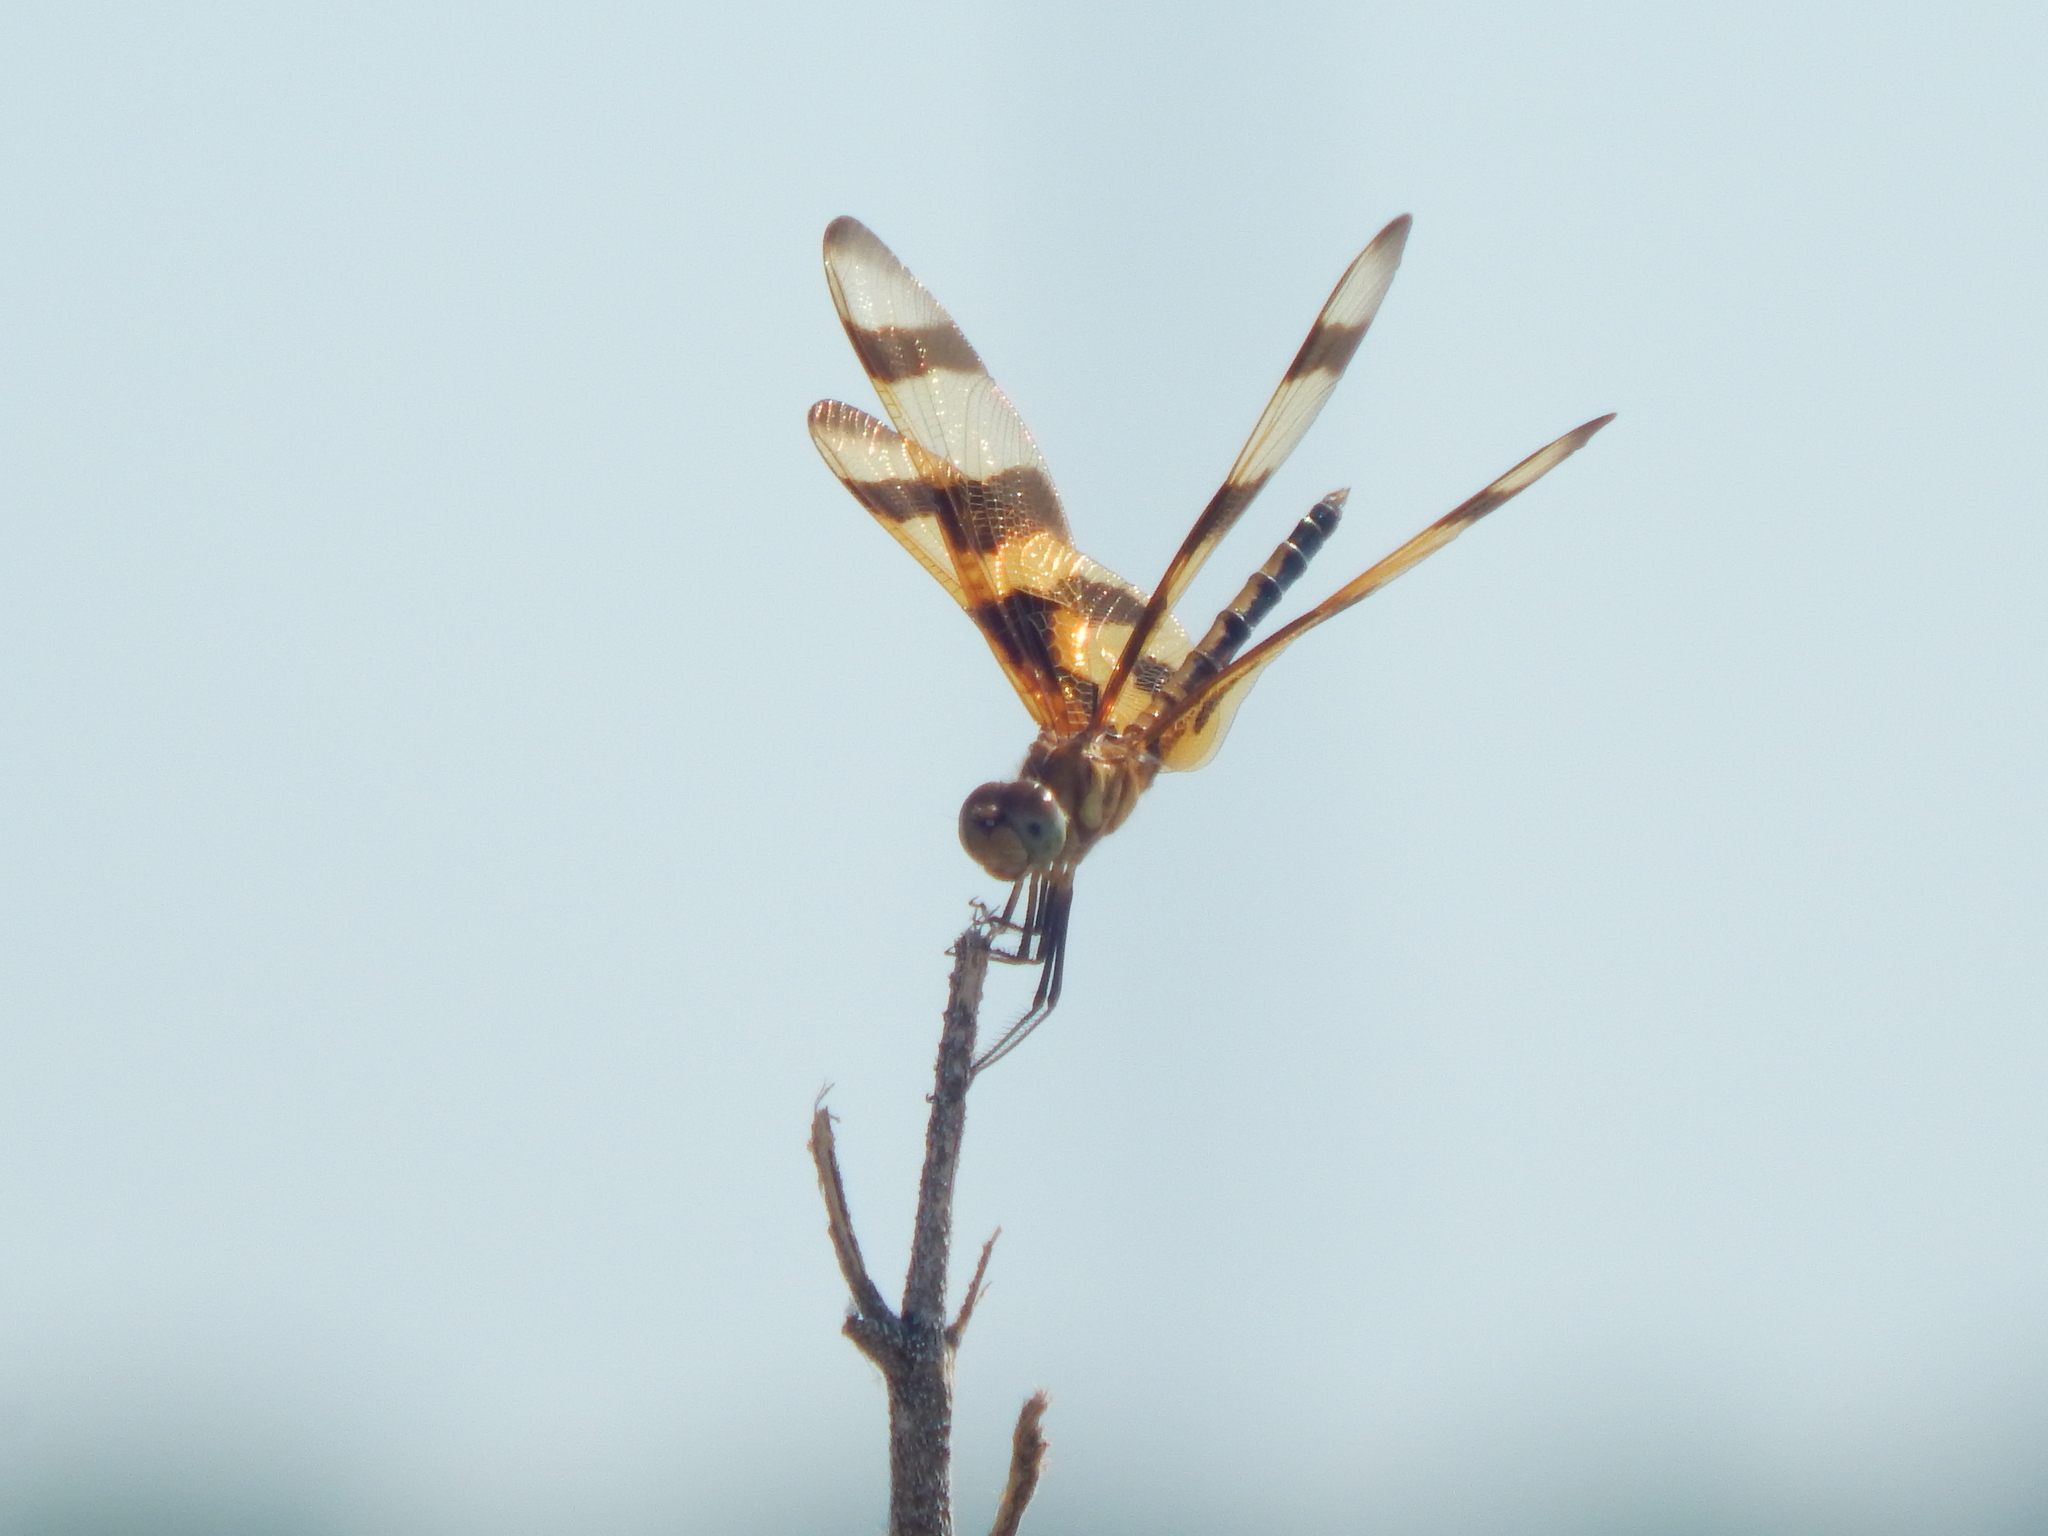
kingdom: Animalia
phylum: Arthropoda
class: Insecta
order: Odonata
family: Libellulidae
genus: Celithemis
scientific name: Celithemis eponina
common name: Halloween pennant
